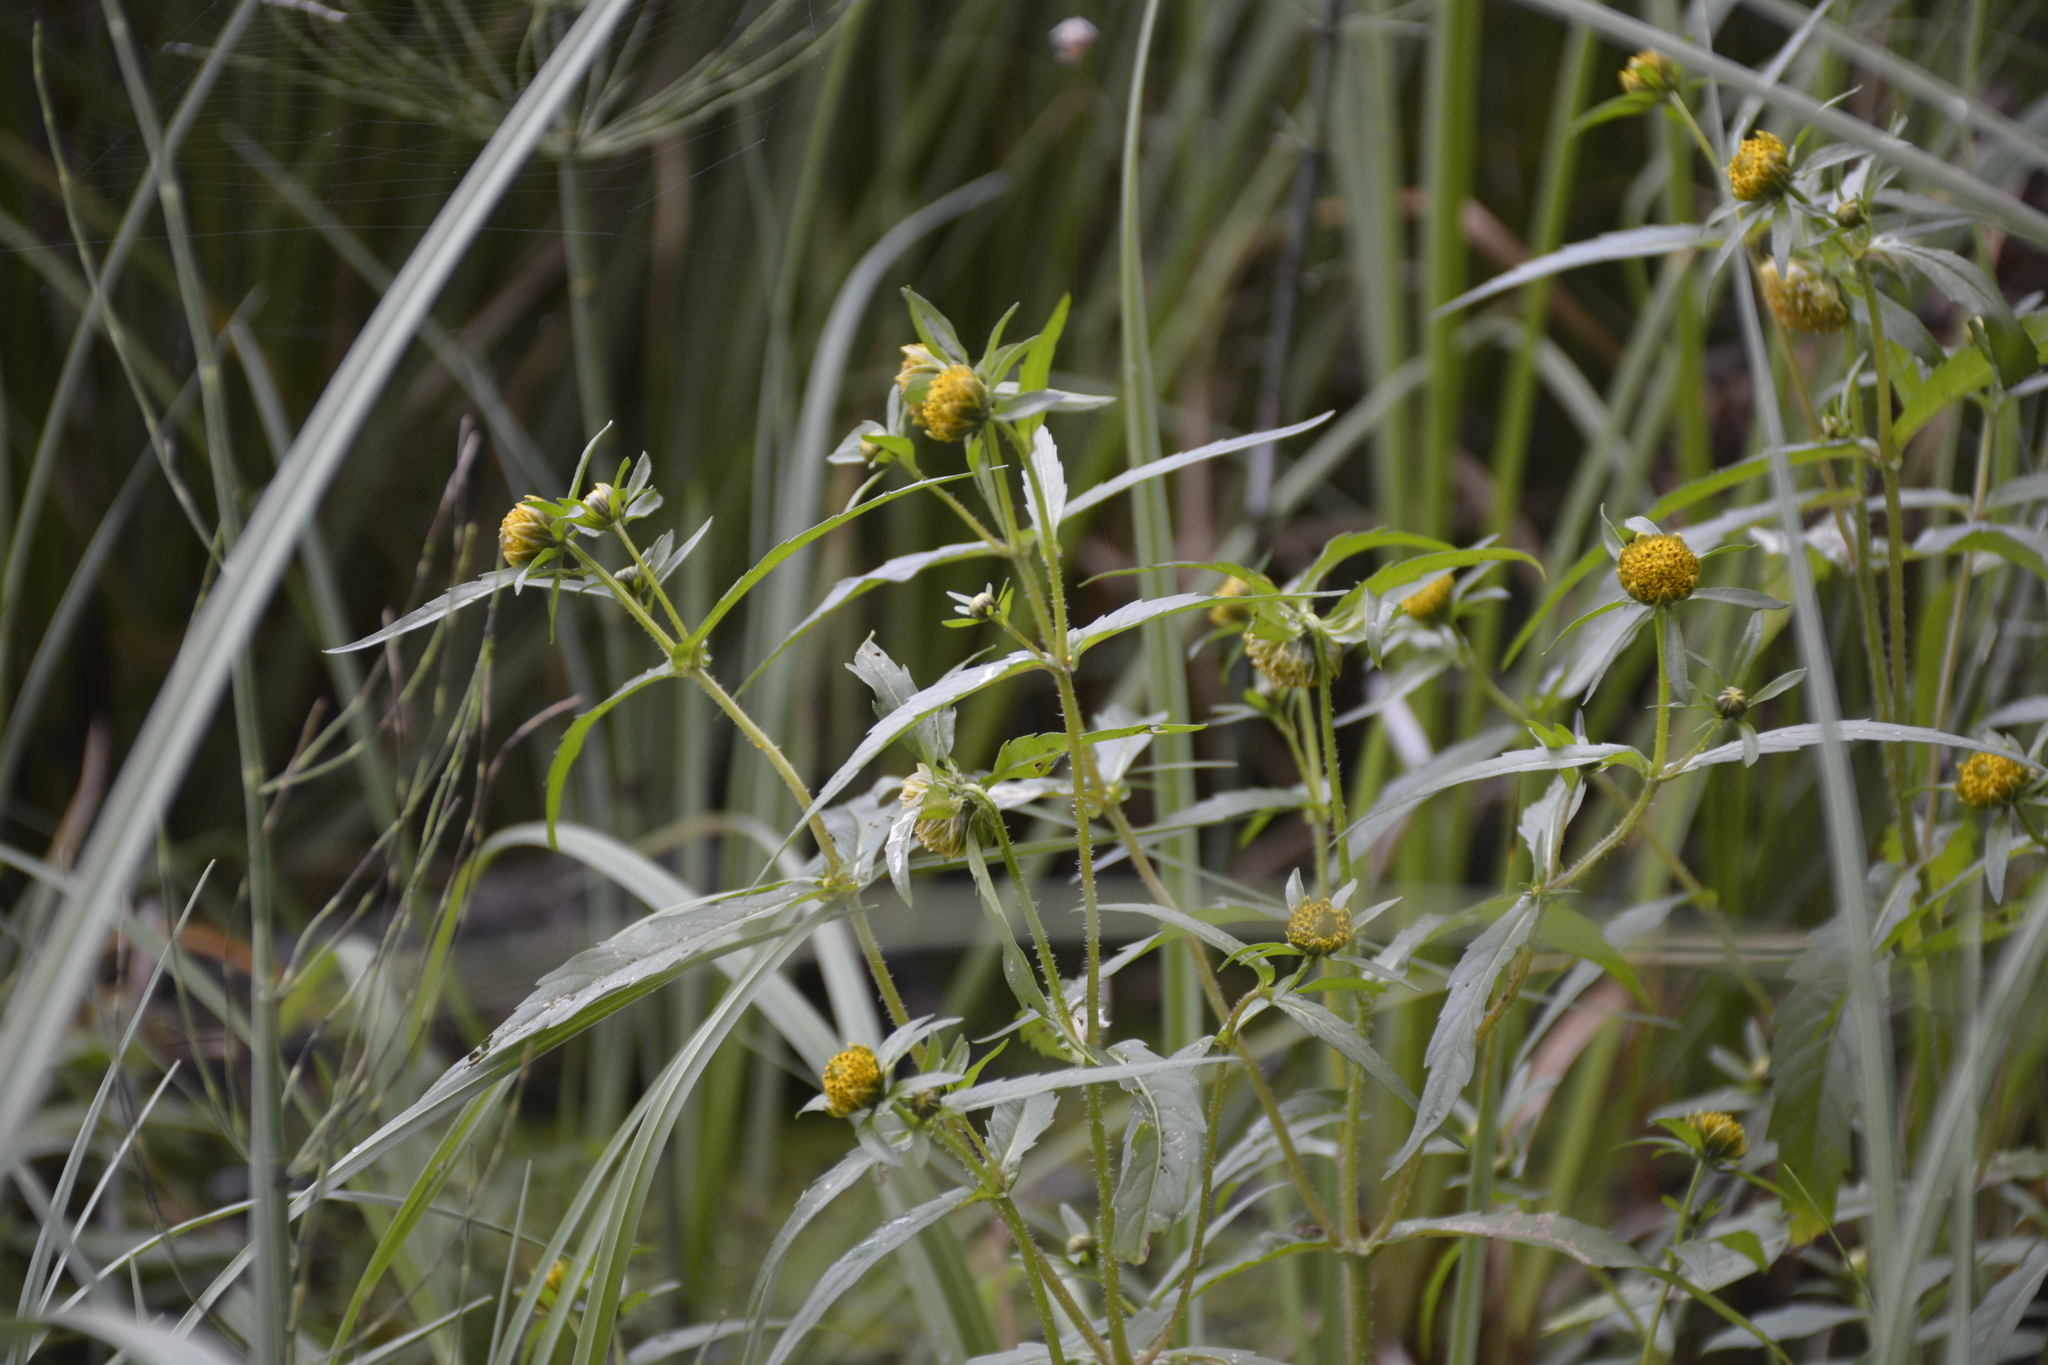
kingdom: Plantae
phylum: Tracheophyta
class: Magnoliopsida
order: Asterales
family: Asteraceae
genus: Bidens
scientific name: Bidens cernua
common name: Nodding bur-marigold
